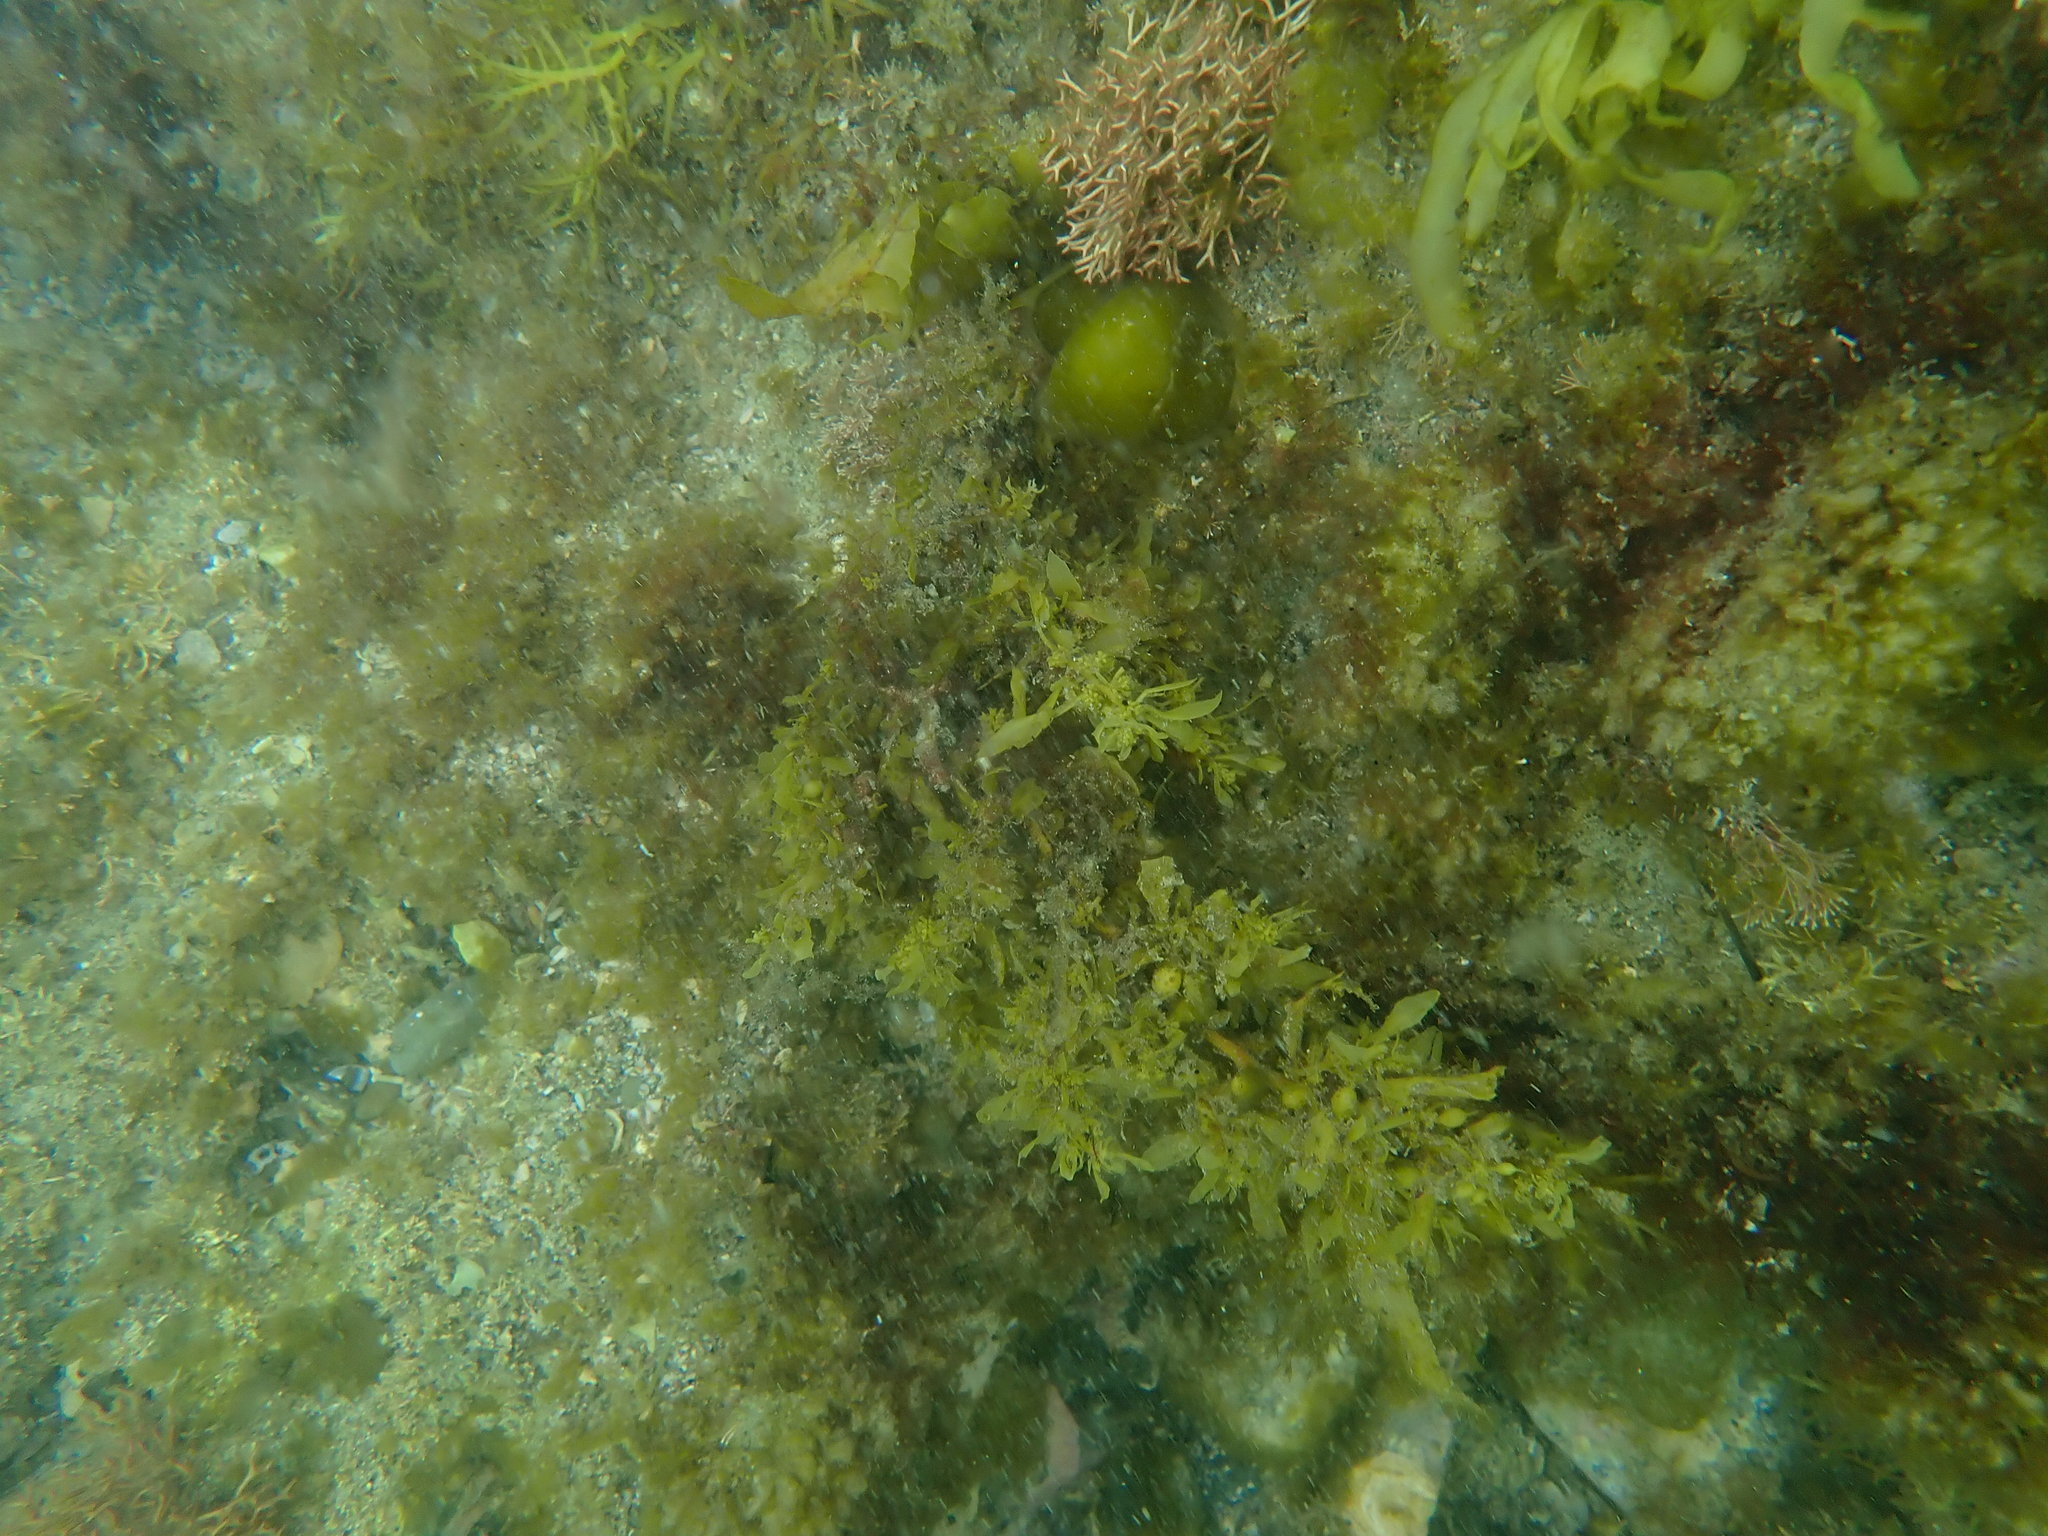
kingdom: Chromista
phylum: Ochrophyta
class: Phaeophyceae
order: Fucales
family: Sargassaceae
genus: Sargassum
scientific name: Sargassum sinclairii
